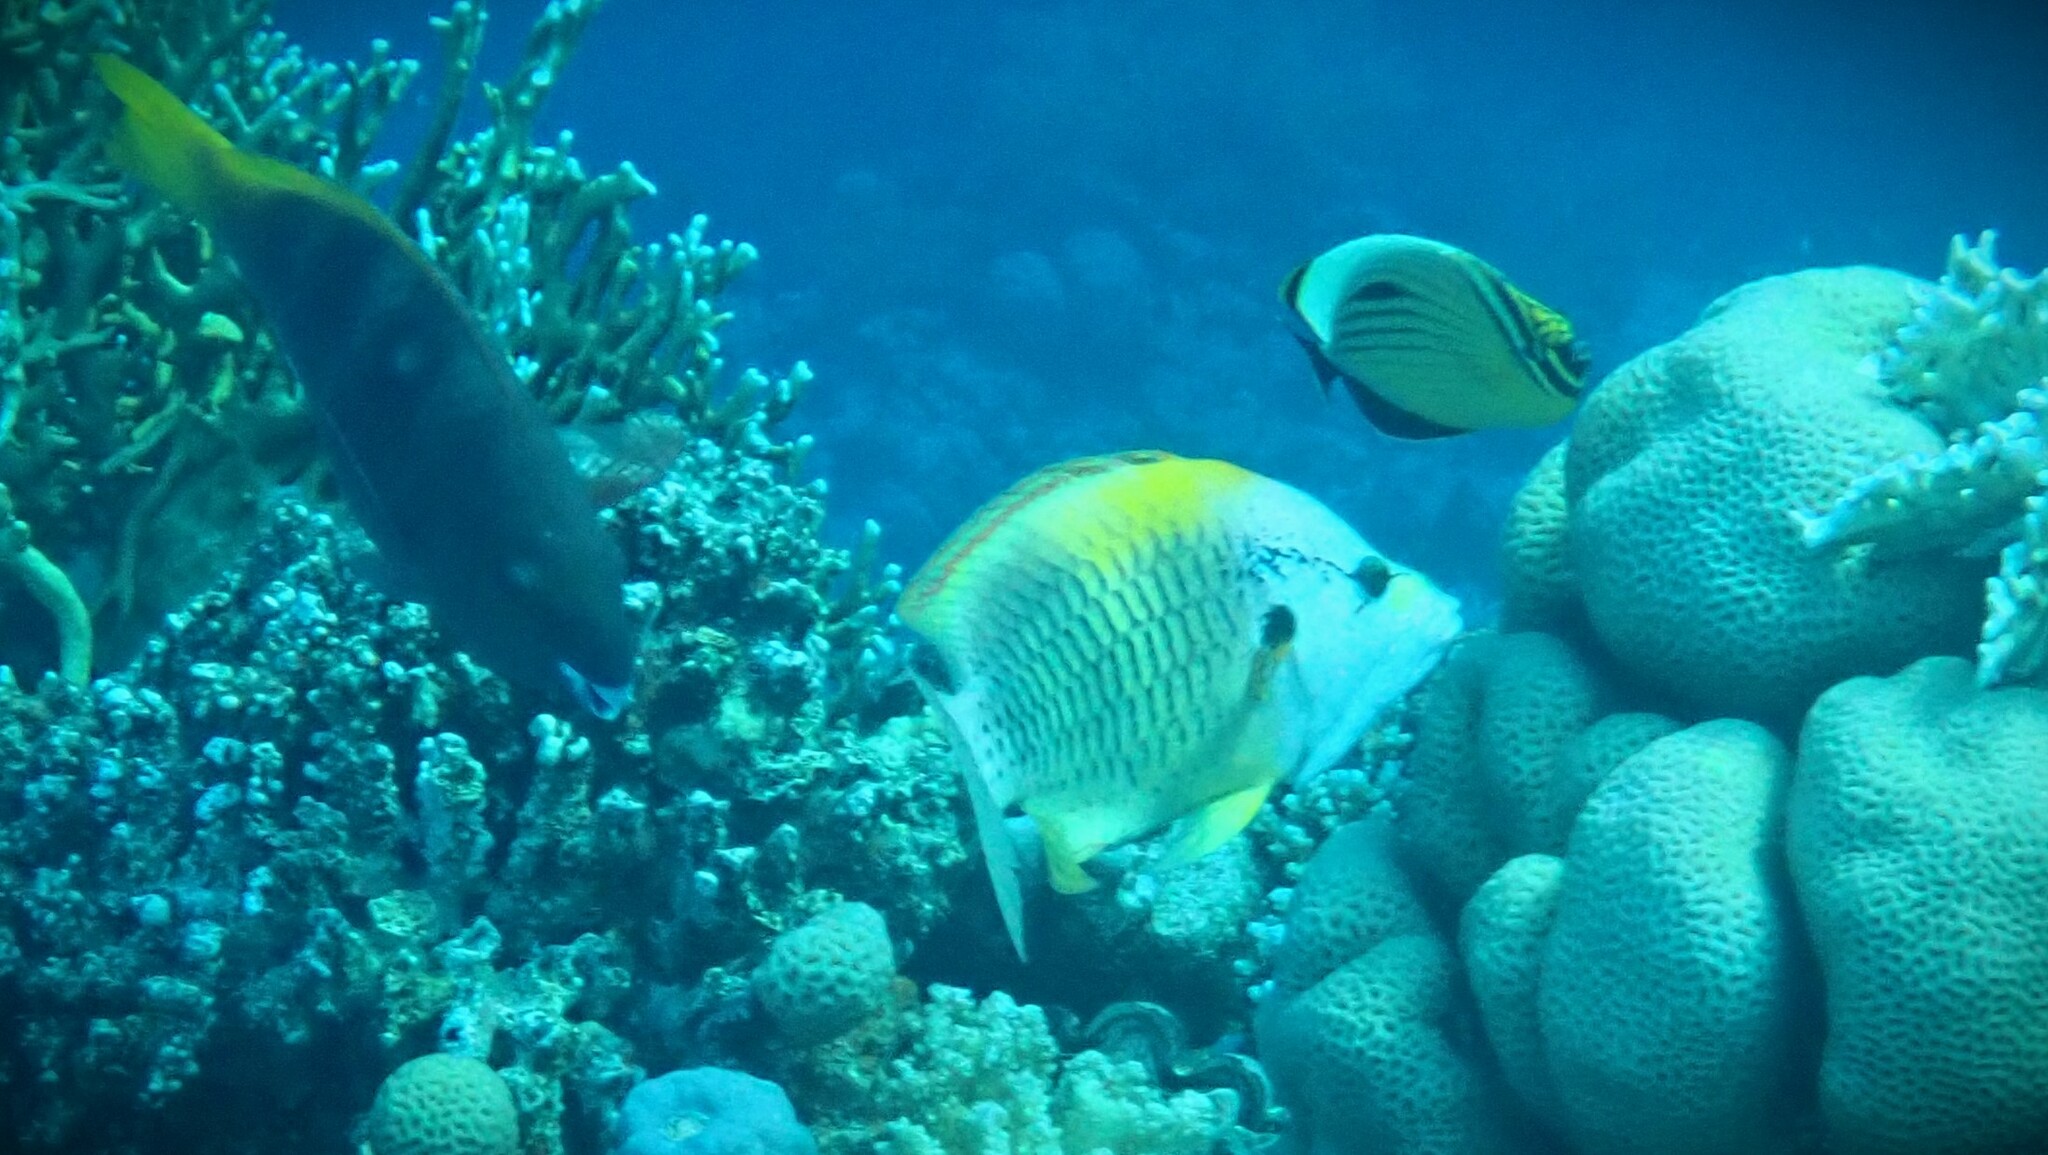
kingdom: Animalia
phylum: Chordata
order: Perciformes
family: Labridae
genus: Epibulus
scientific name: Epibulus insidiator
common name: Slingjaw wrasse
